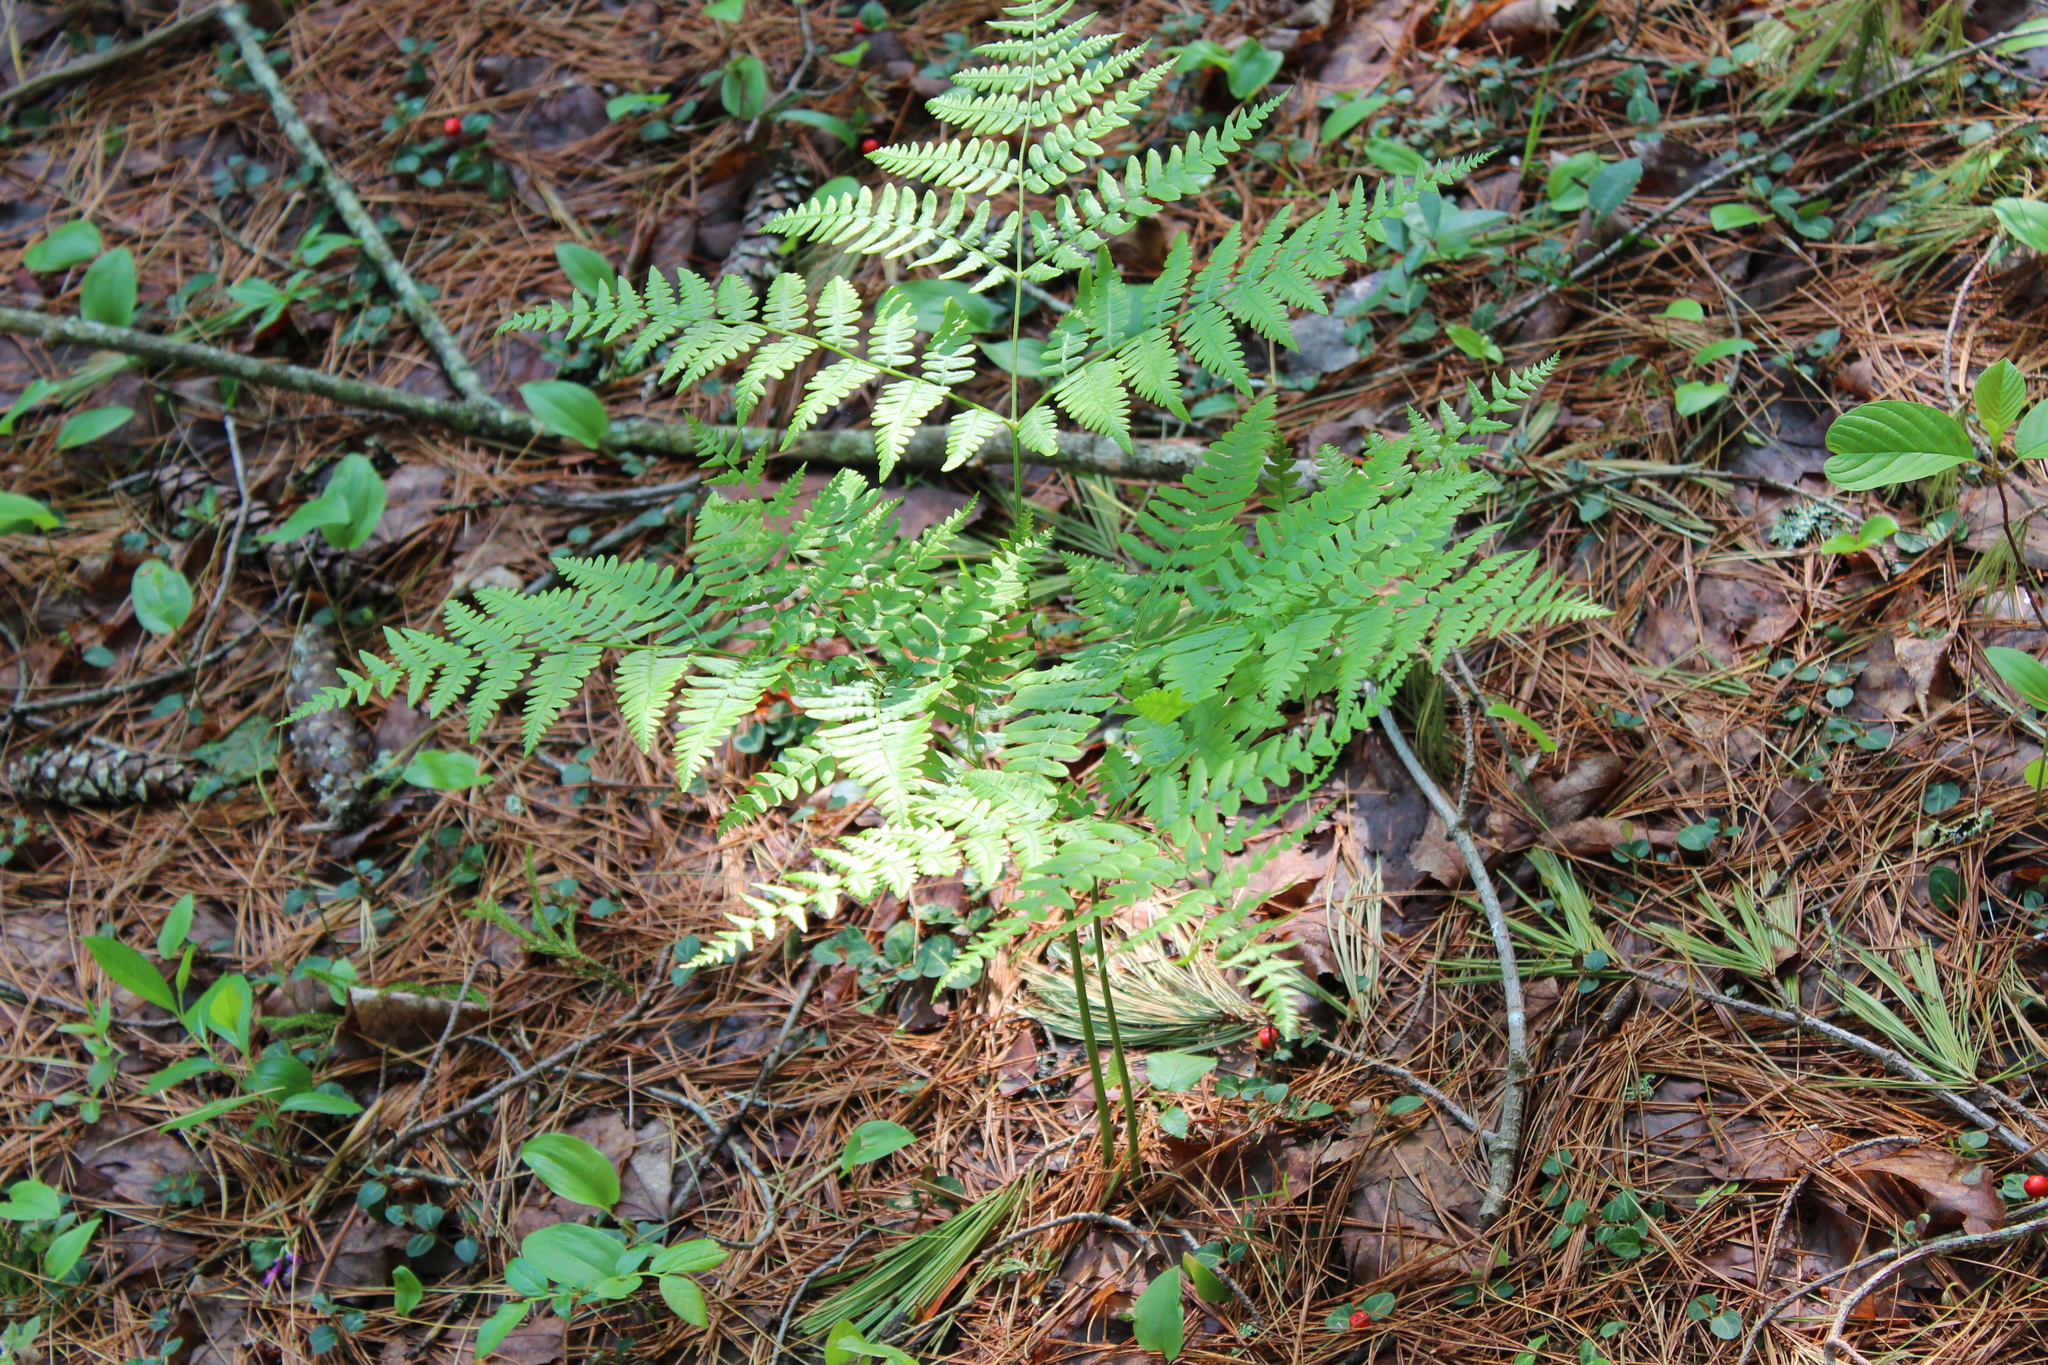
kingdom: Plantae
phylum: Tracheophyta
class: Polypodiopsida
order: Polypodiales
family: Dennstaedtiaceae
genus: Pteridium
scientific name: Pteridium aquilinum
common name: Bracken
